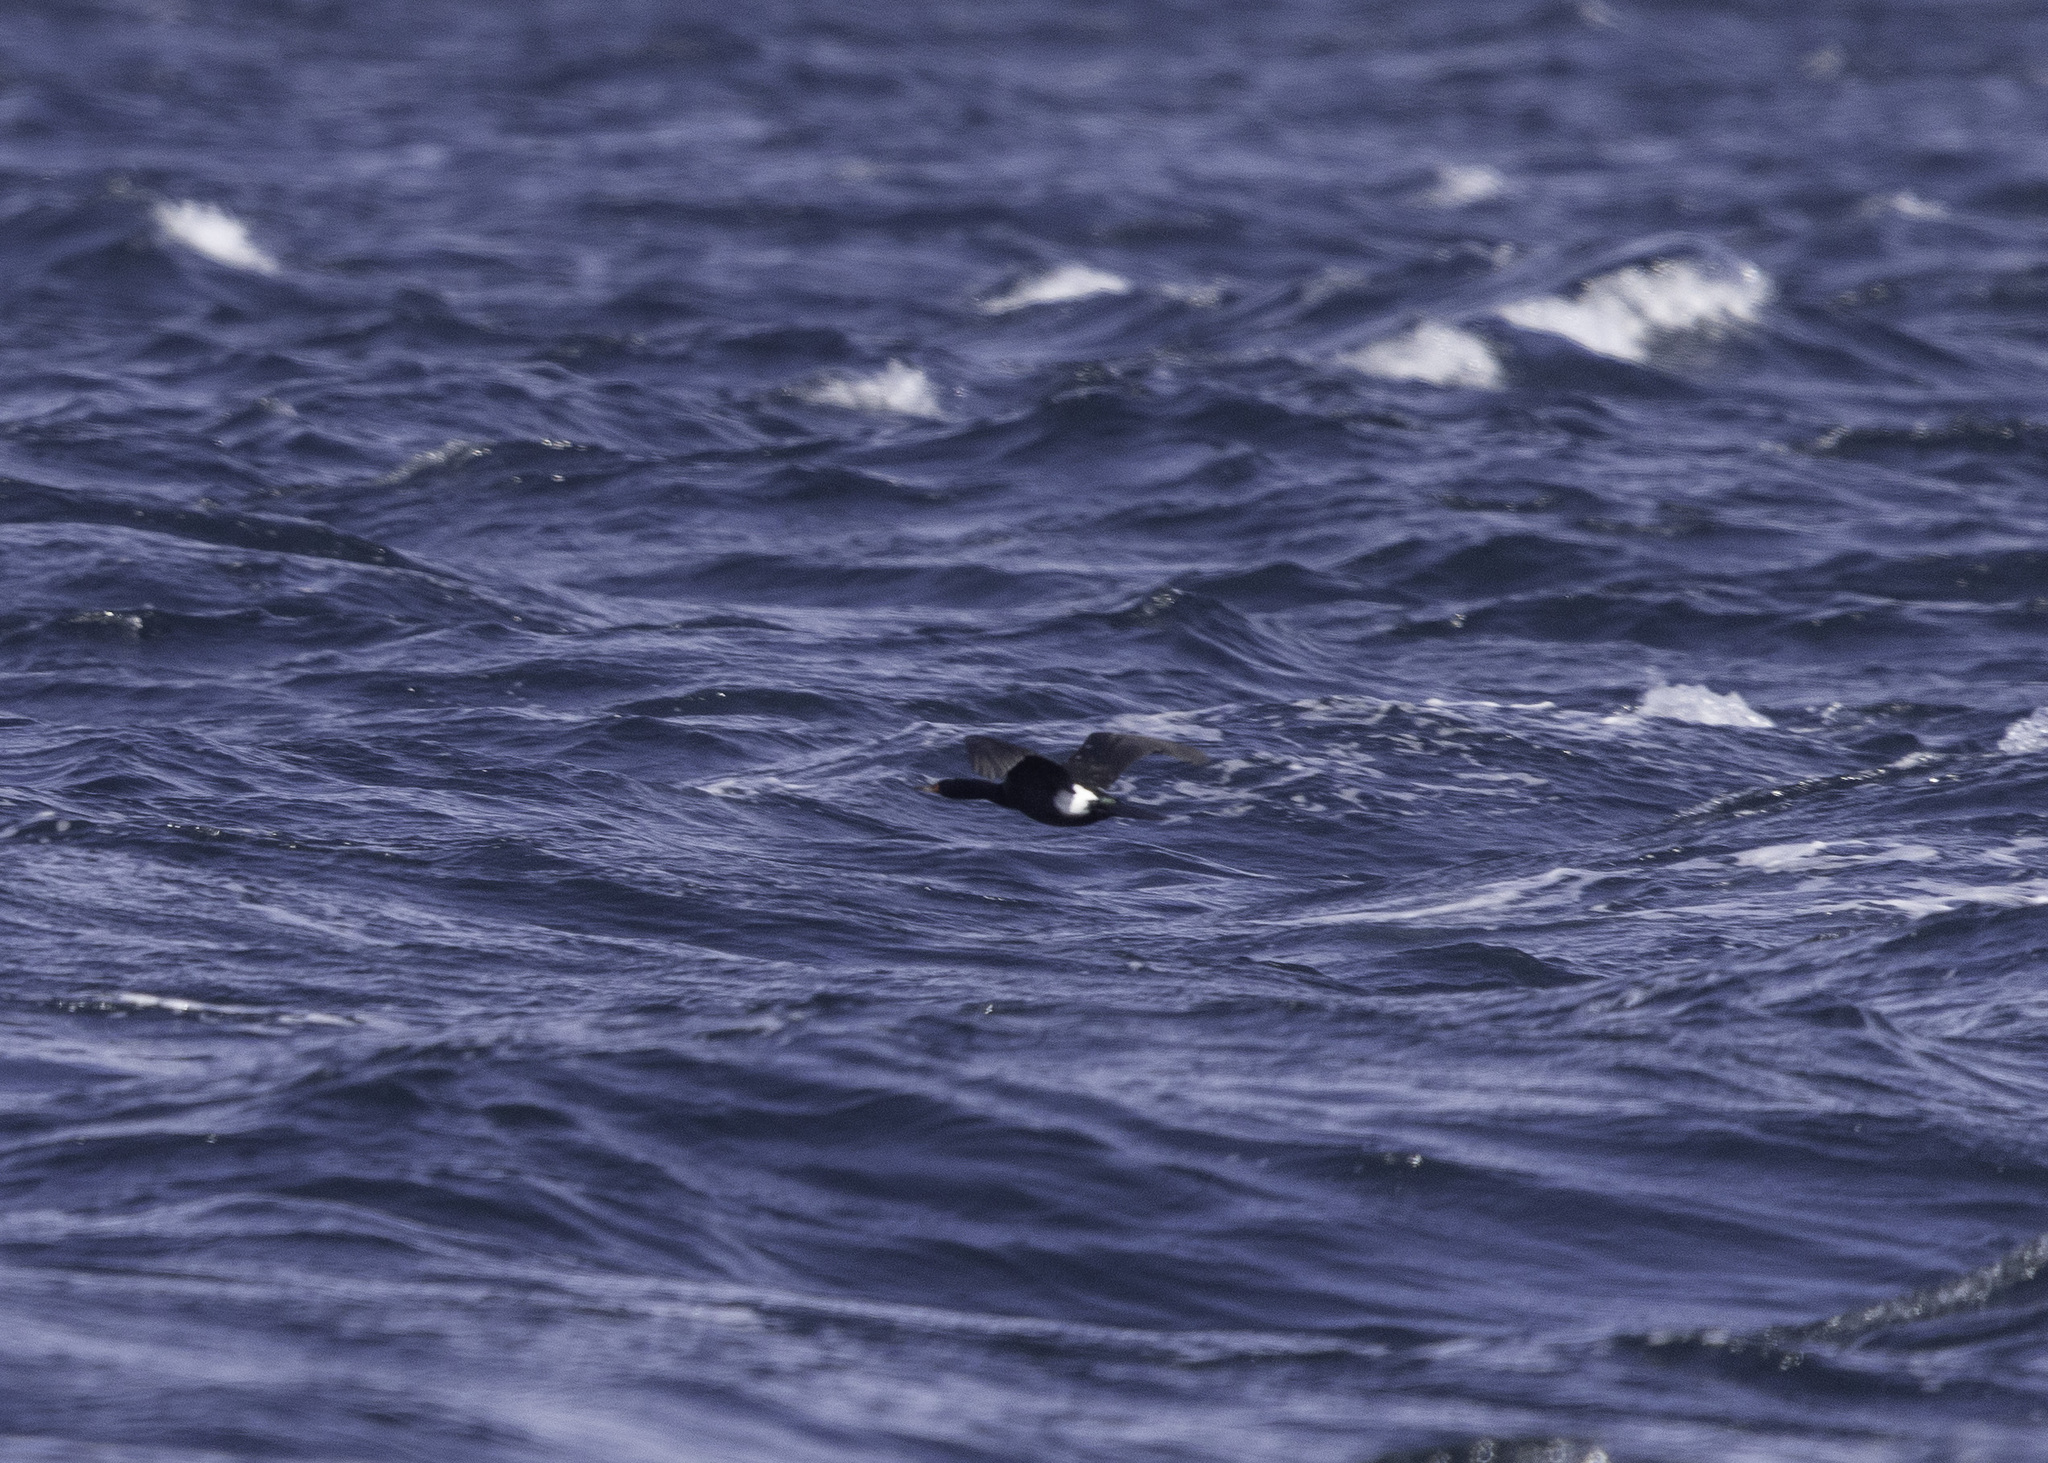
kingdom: Animalia
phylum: Chordata
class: Aves
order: Suliformes
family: Phalacrocoracidae
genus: Phalacrocorax
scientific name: Phalacrocorax pelagicus
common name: Pelagic cormorant
